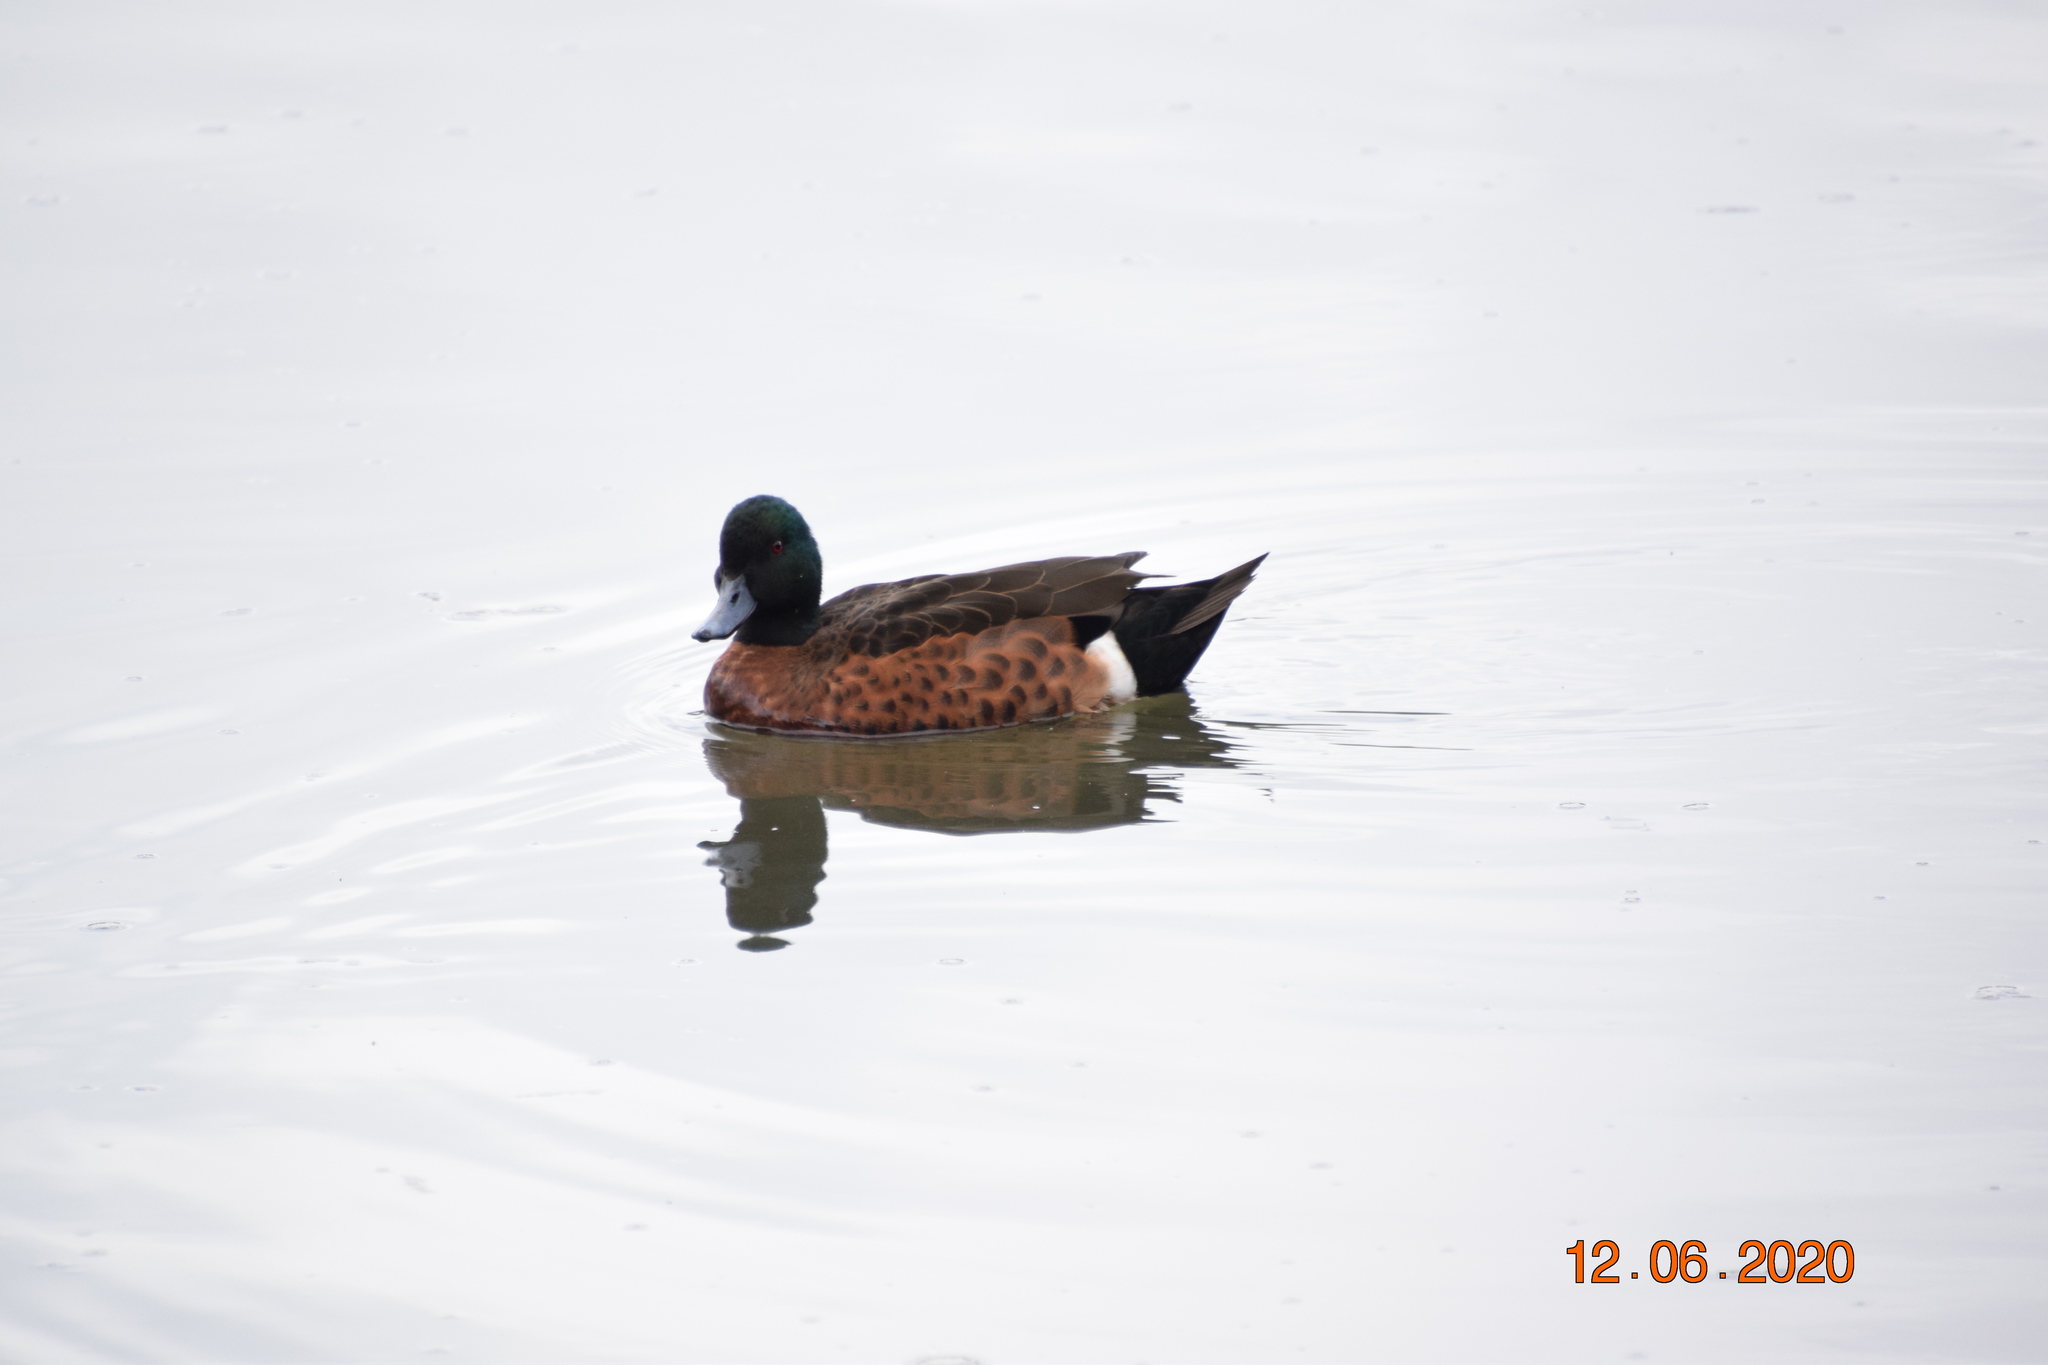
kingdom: Animalia
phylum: Chordata
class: Aves
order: Anseriformes
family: Anatidae
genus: Anas
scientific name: Anas castanea
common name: Chestnut teal
